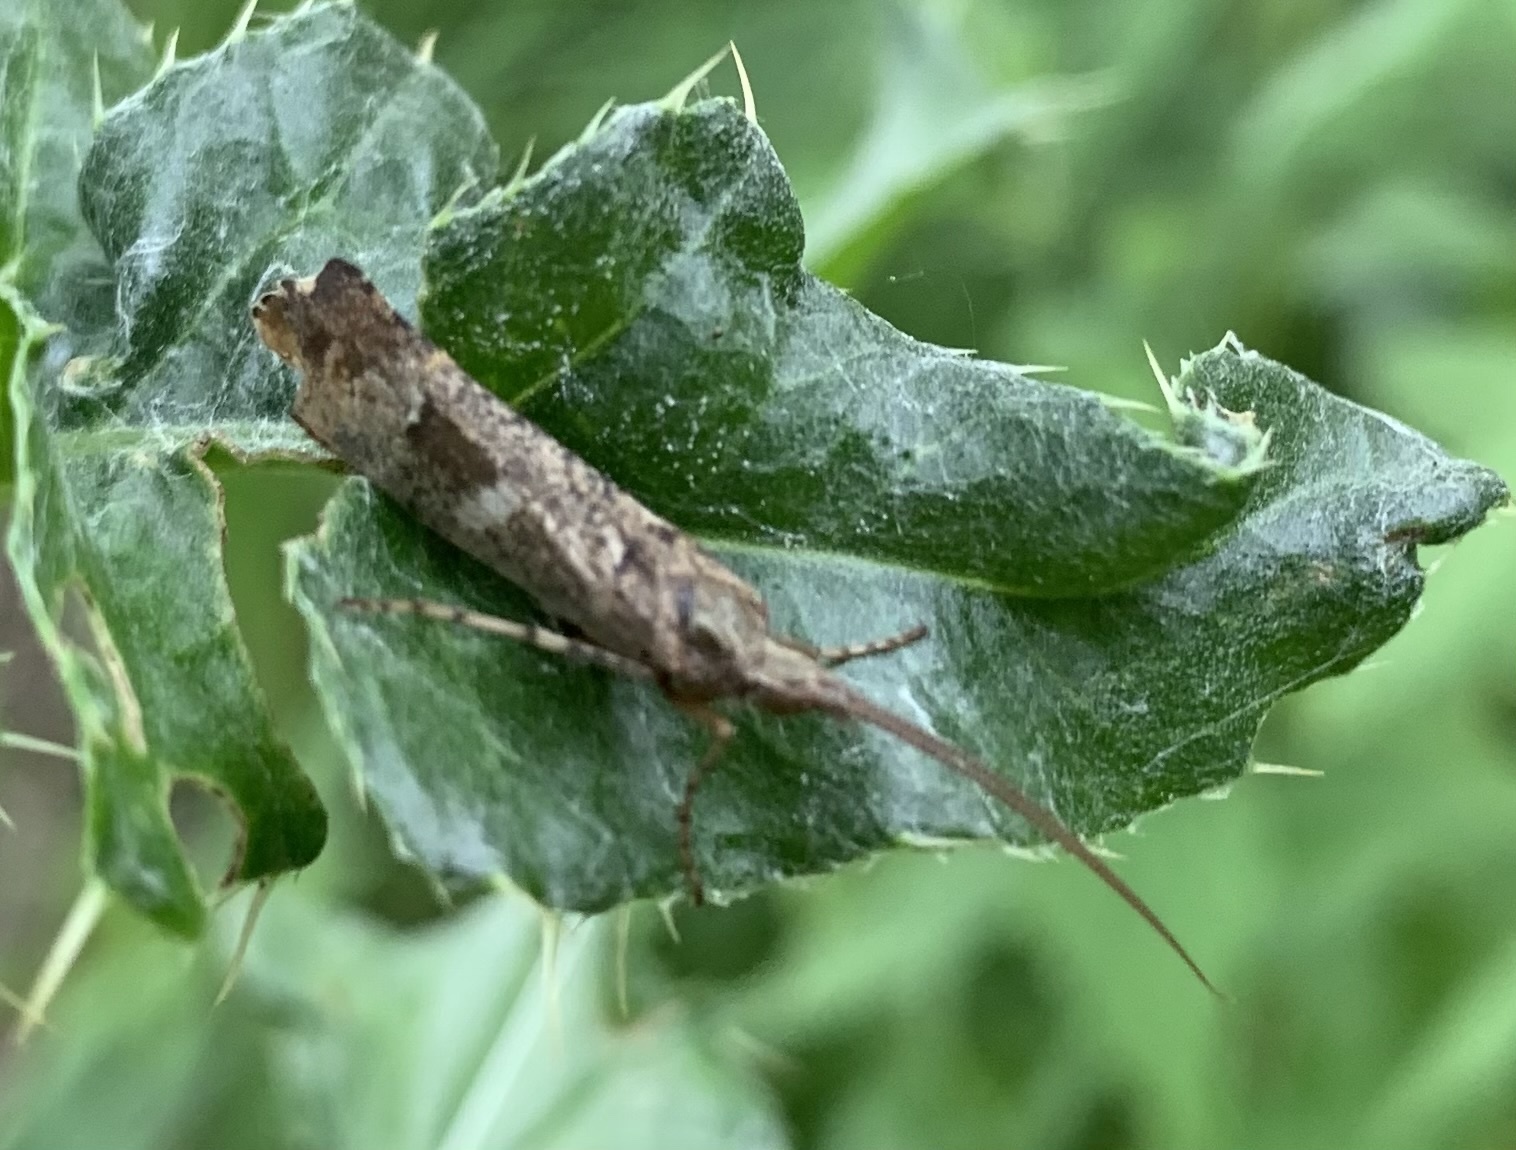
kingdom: Animalia
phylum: Arthropoda
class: Insecta
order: Trichoptera
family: Limnephilidae
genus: Glyphotaelius
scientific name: Glyphotaelius pellucidus
